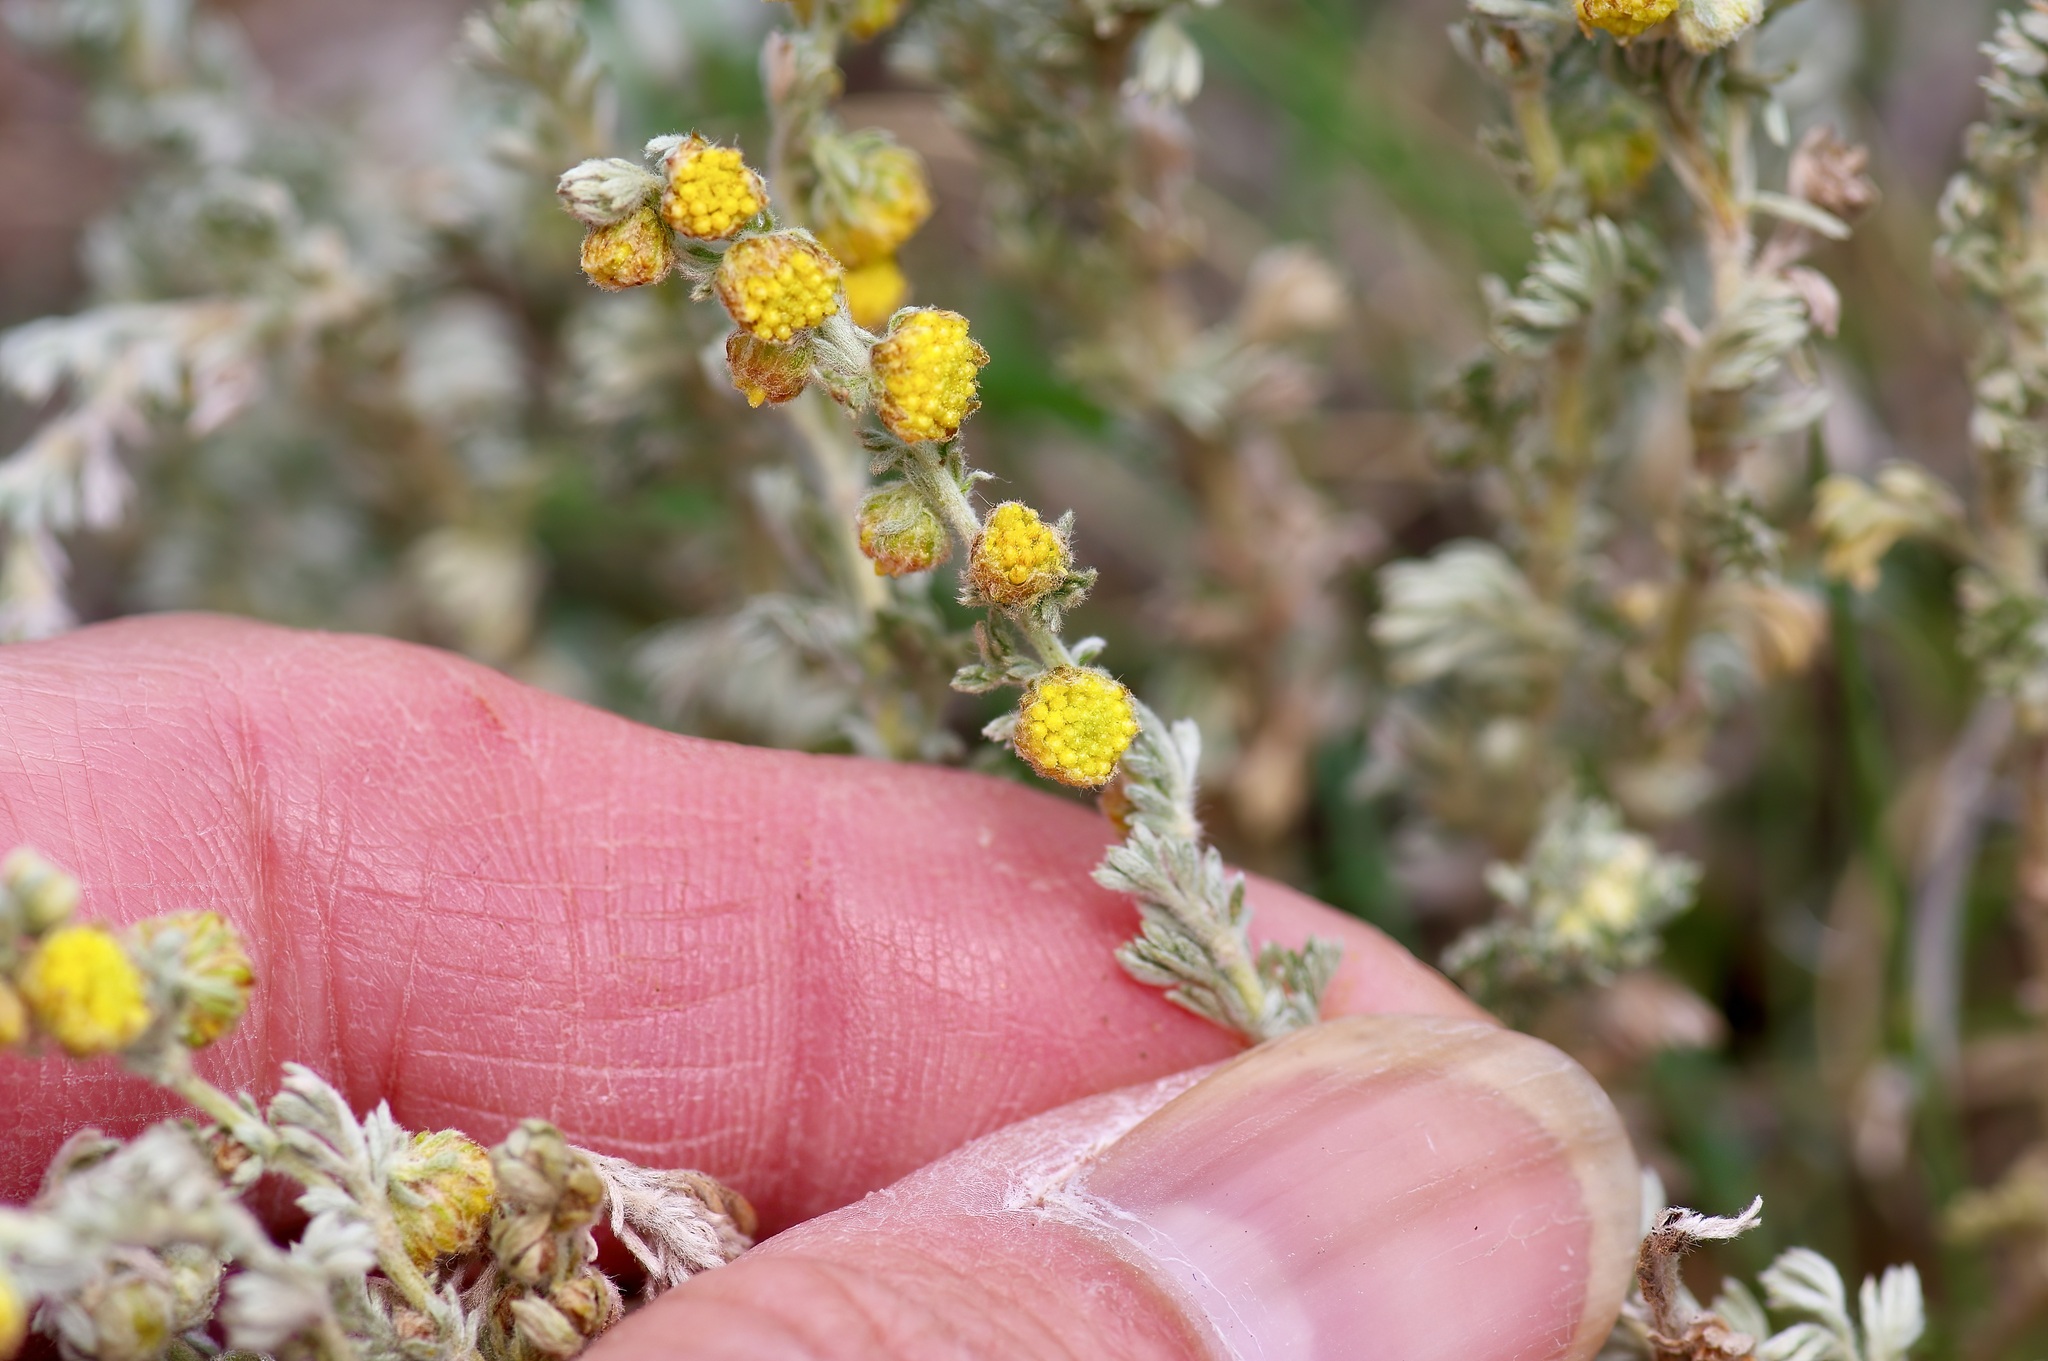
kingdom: Plantae
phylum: Tracheophyta
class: Magnoliopsida
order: Asterales
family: Asteraceae
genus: Artemisia
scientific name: Artemisia frigida
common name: Prairie sagewort
